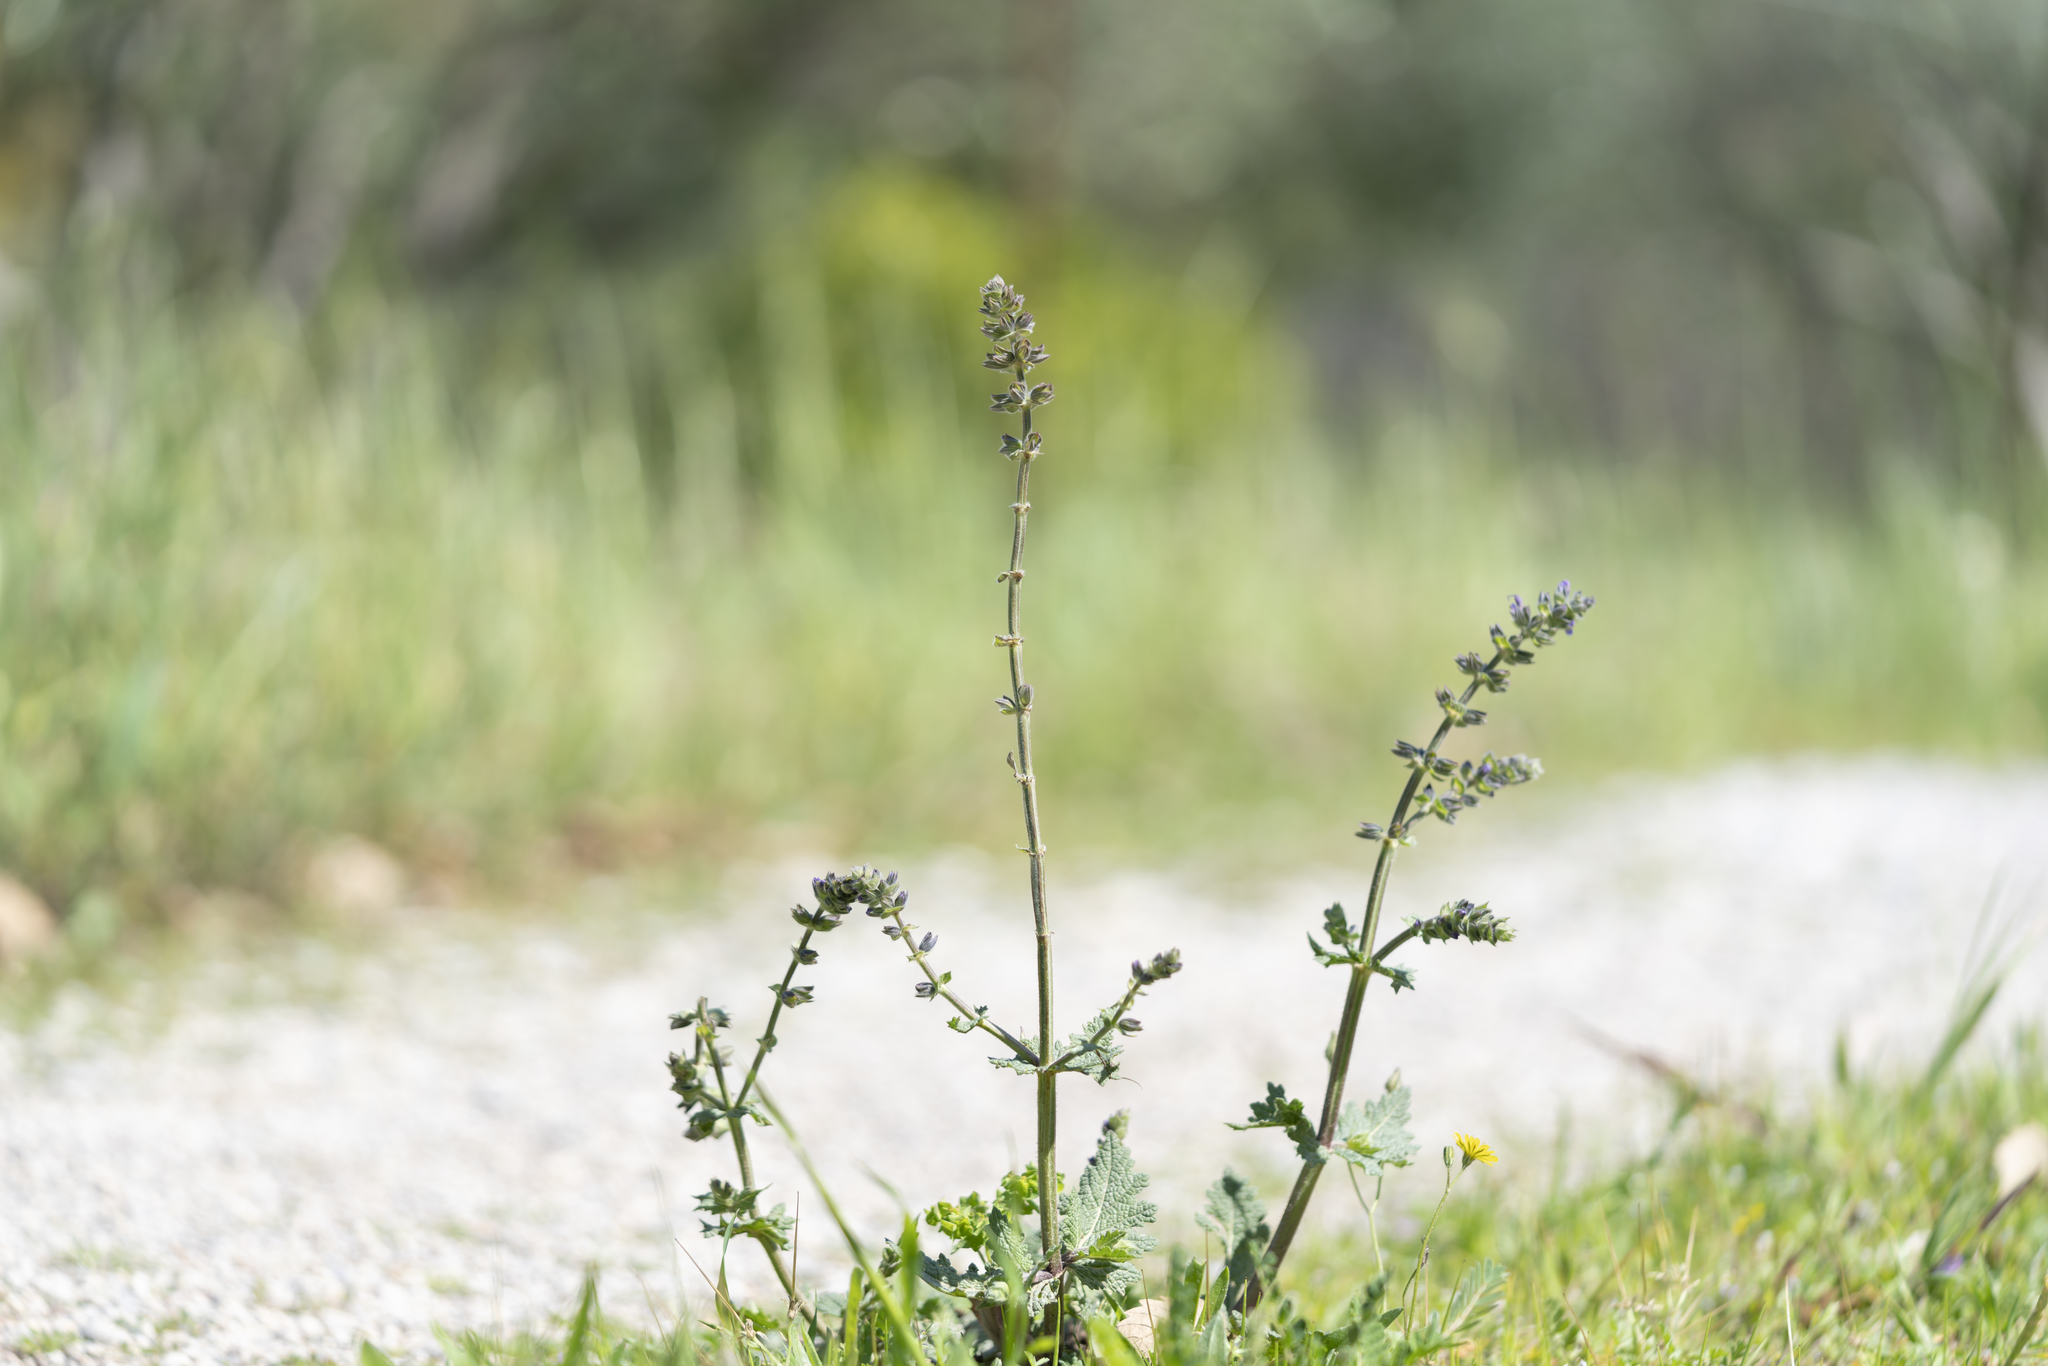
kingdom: Plantae
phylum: Tracheophyta
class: Magnoliopsida
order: Lamiales
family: Lamiaceae
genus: Salvia
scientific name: Salvia verbenaca
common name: Wild clary
